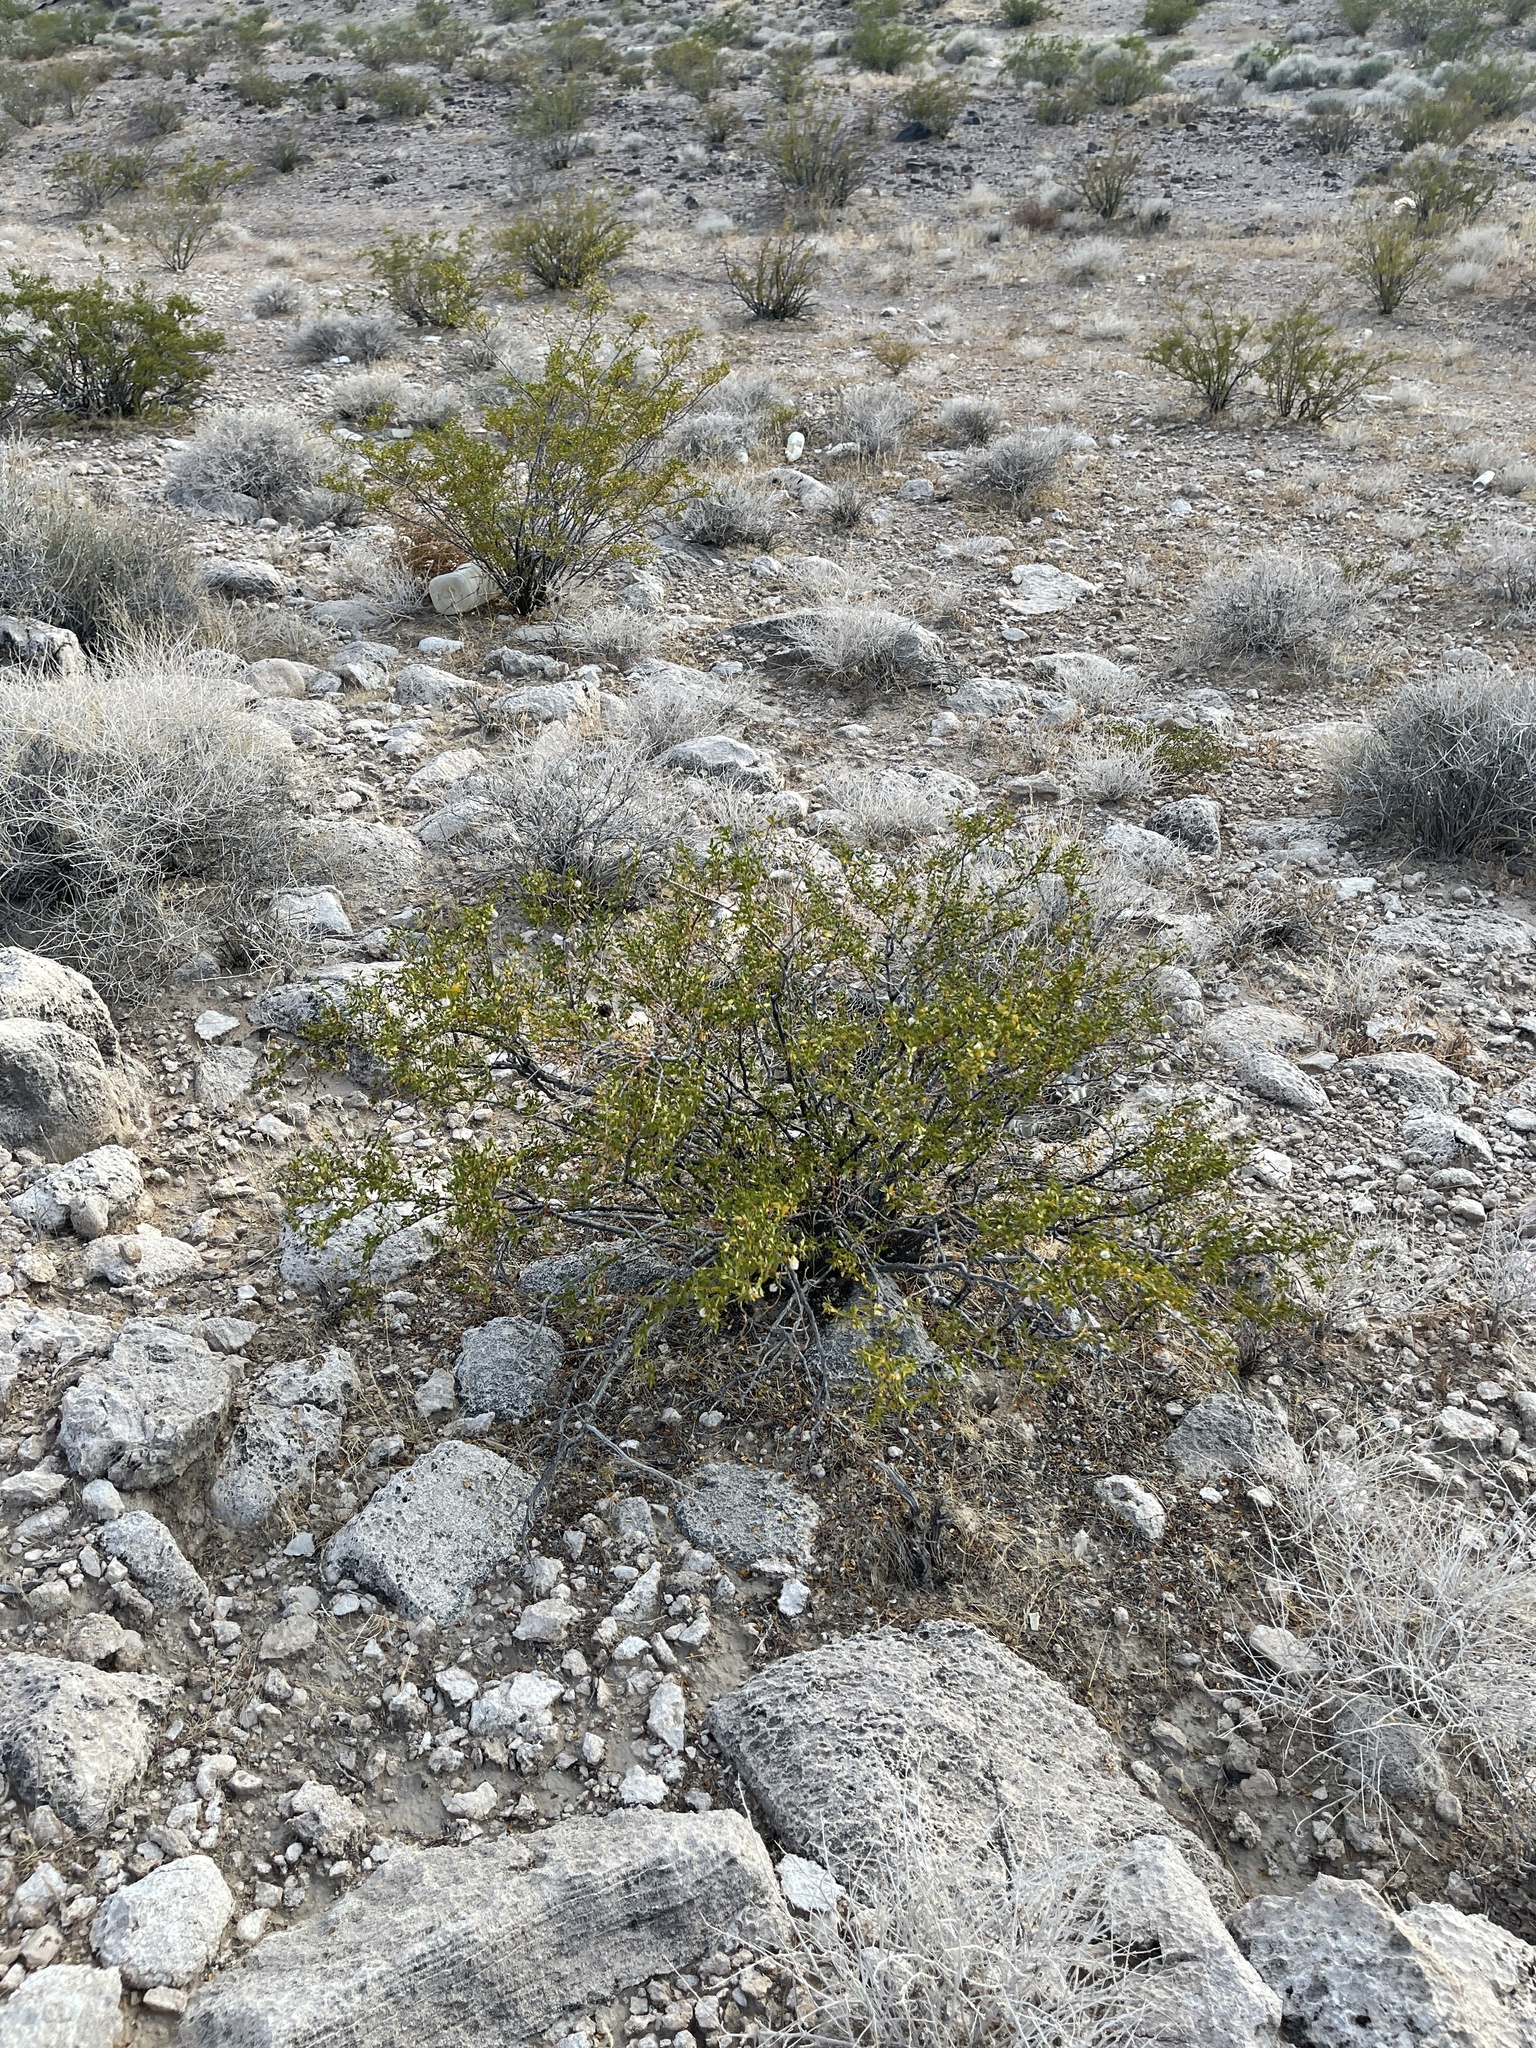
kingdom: Plantae
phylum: Tracheophyta
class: Magnoliopsida
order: Zygophyllales
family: Zygophyllaceae
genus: Larrea
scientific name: Larrea tridentata
